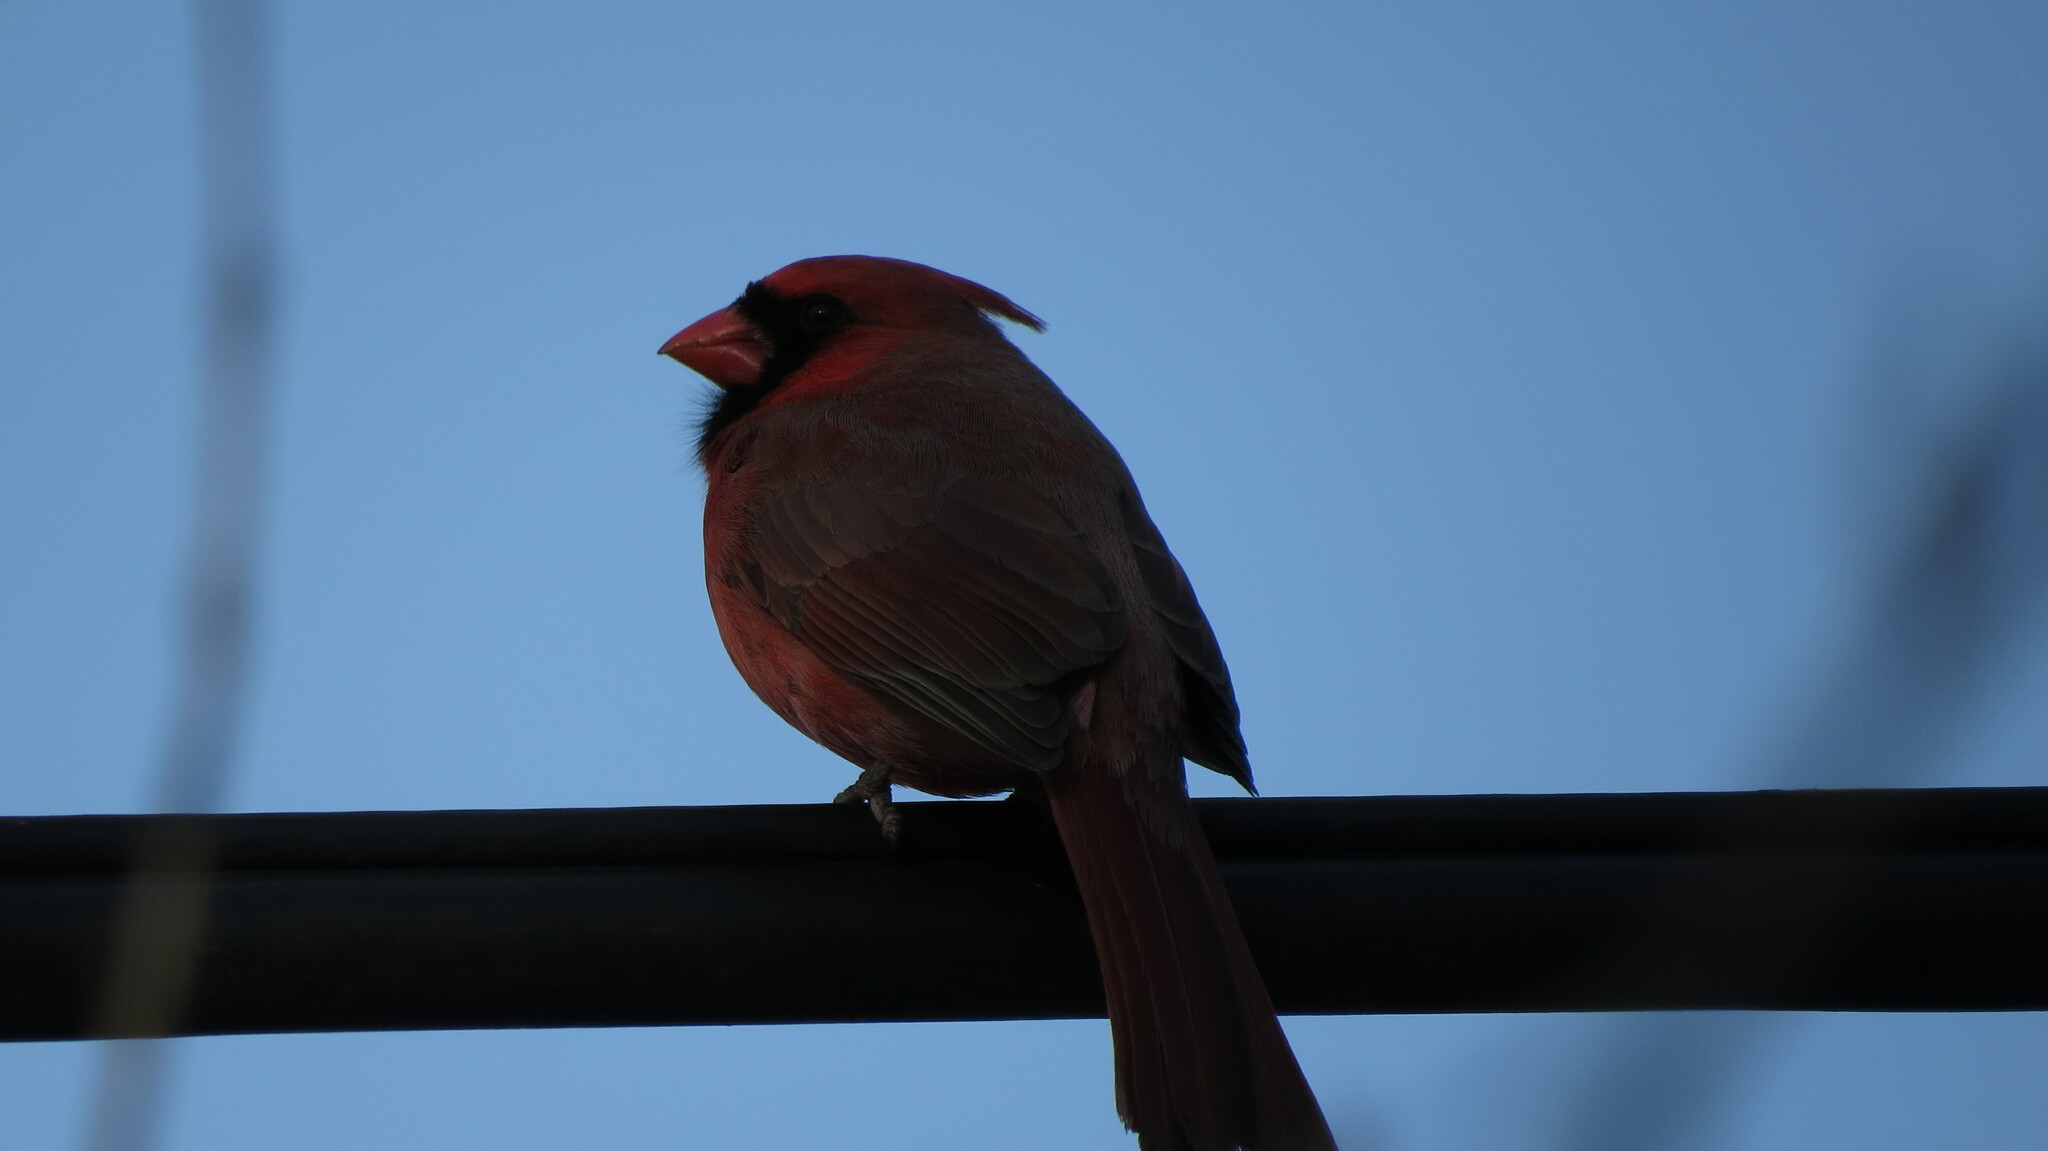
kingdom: Animalia
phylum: Chordata
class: Aves
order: Passeriformes
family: Cardinalidae
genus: Cardinalis
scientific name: Cardinalis cardinalis
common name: Northern cardinal
